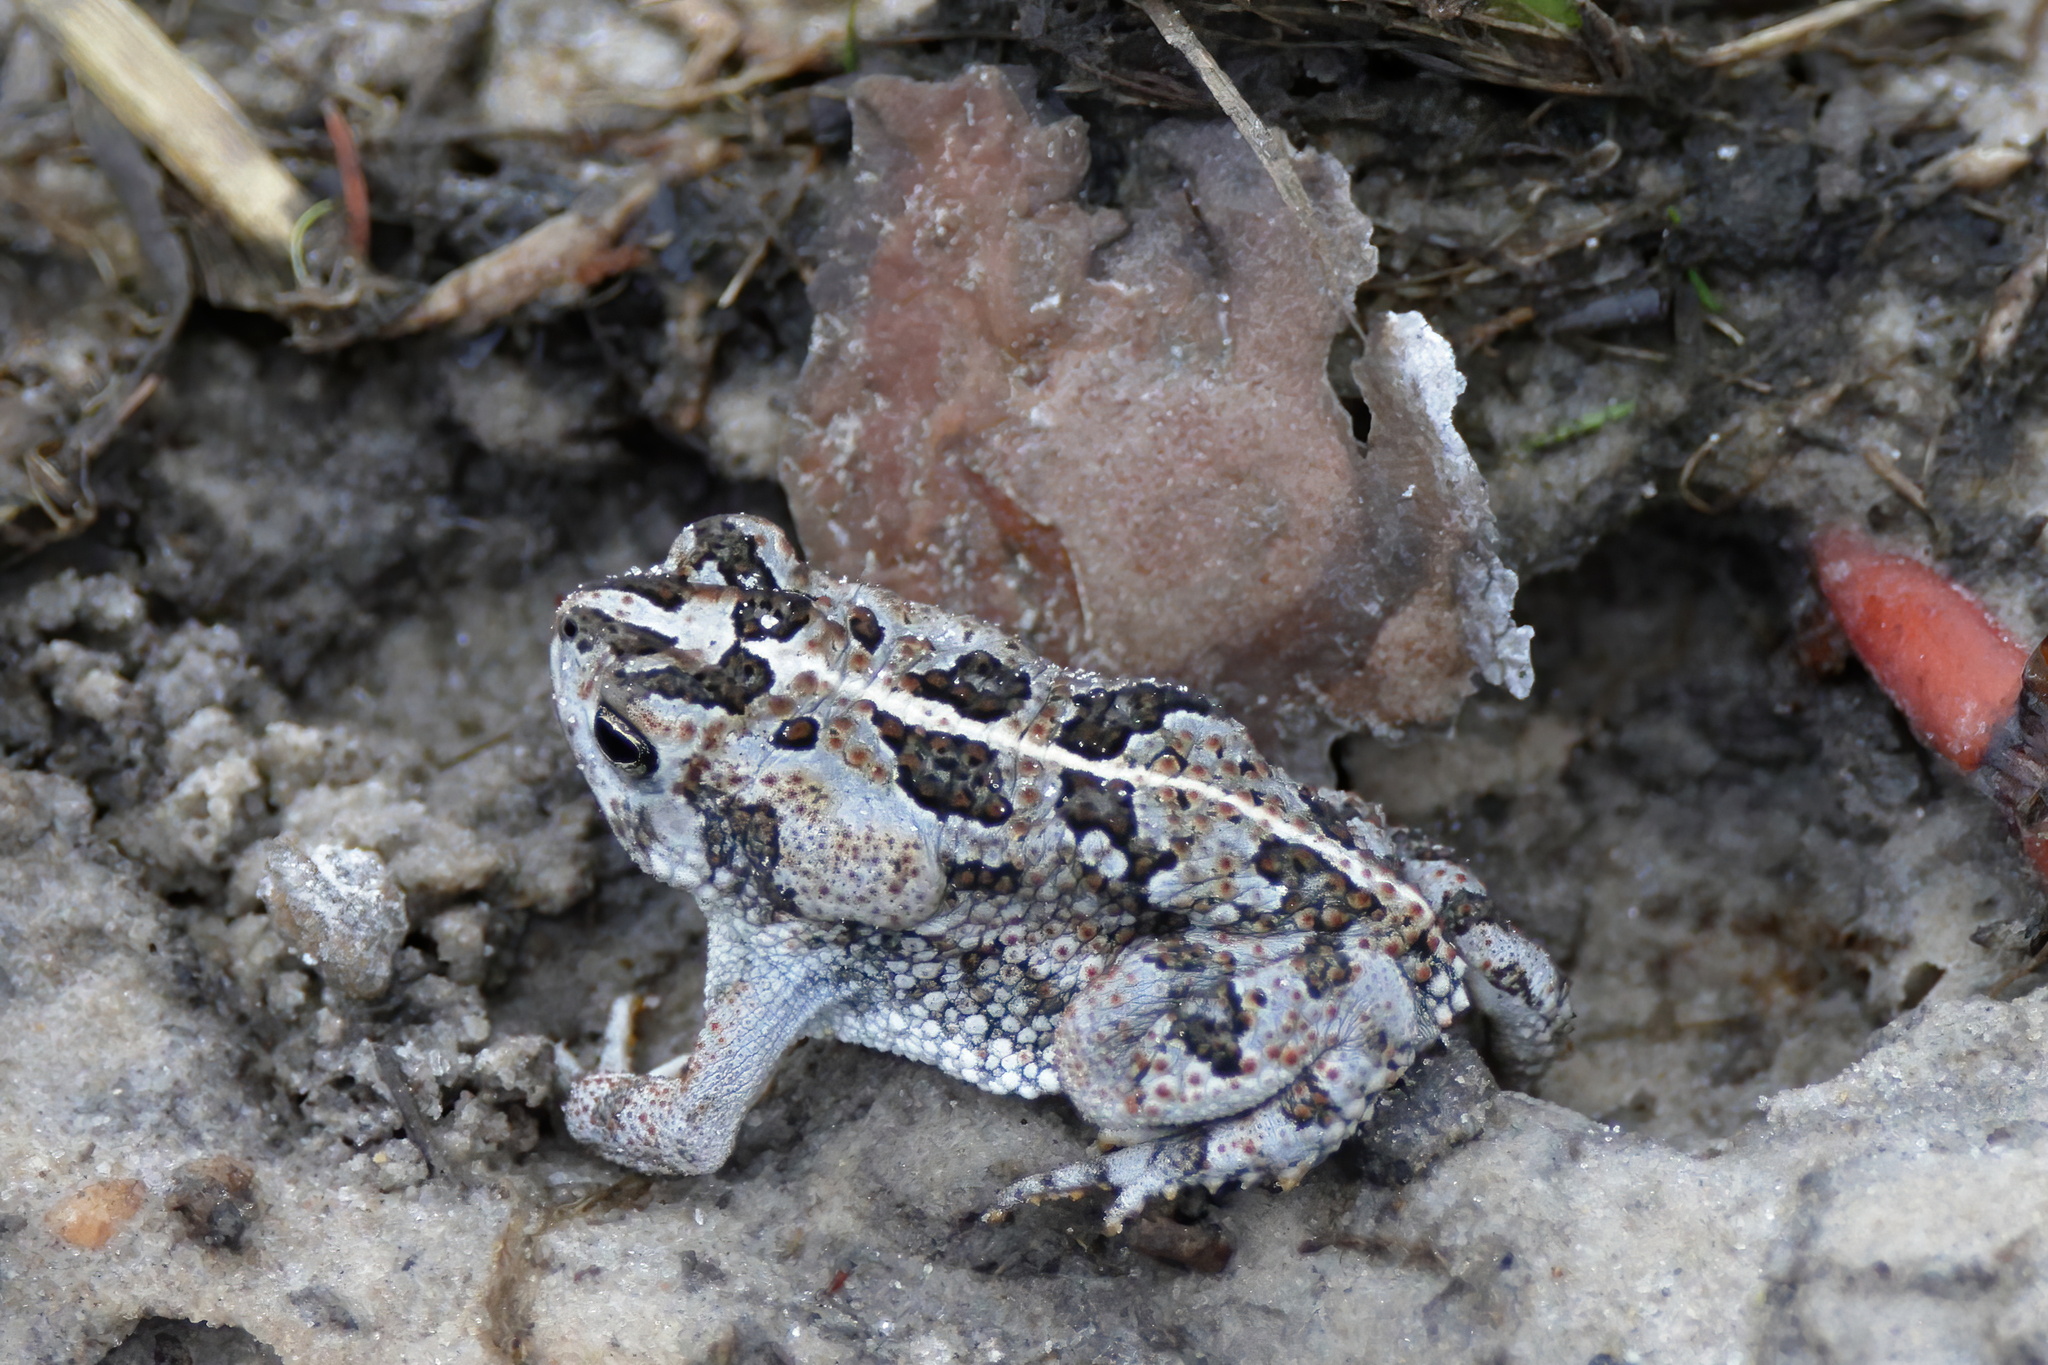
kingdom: Animalia
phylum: Chordata
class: Amphibia
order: Anura
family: Bufonidae
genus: Anaxyrus
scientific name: Anaxyrus quercicus
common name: Oak toad
